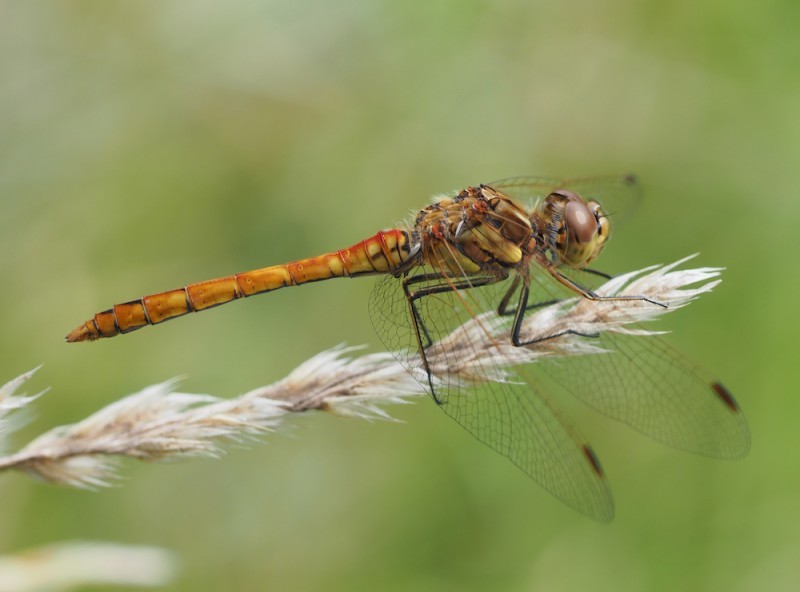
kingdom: Animalia
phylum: Arthropoda
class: Insecta
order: Odonata
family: Libellulidae
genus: Sympetrum
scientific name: Sympetrum vulgatum
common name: Vagrant darter
